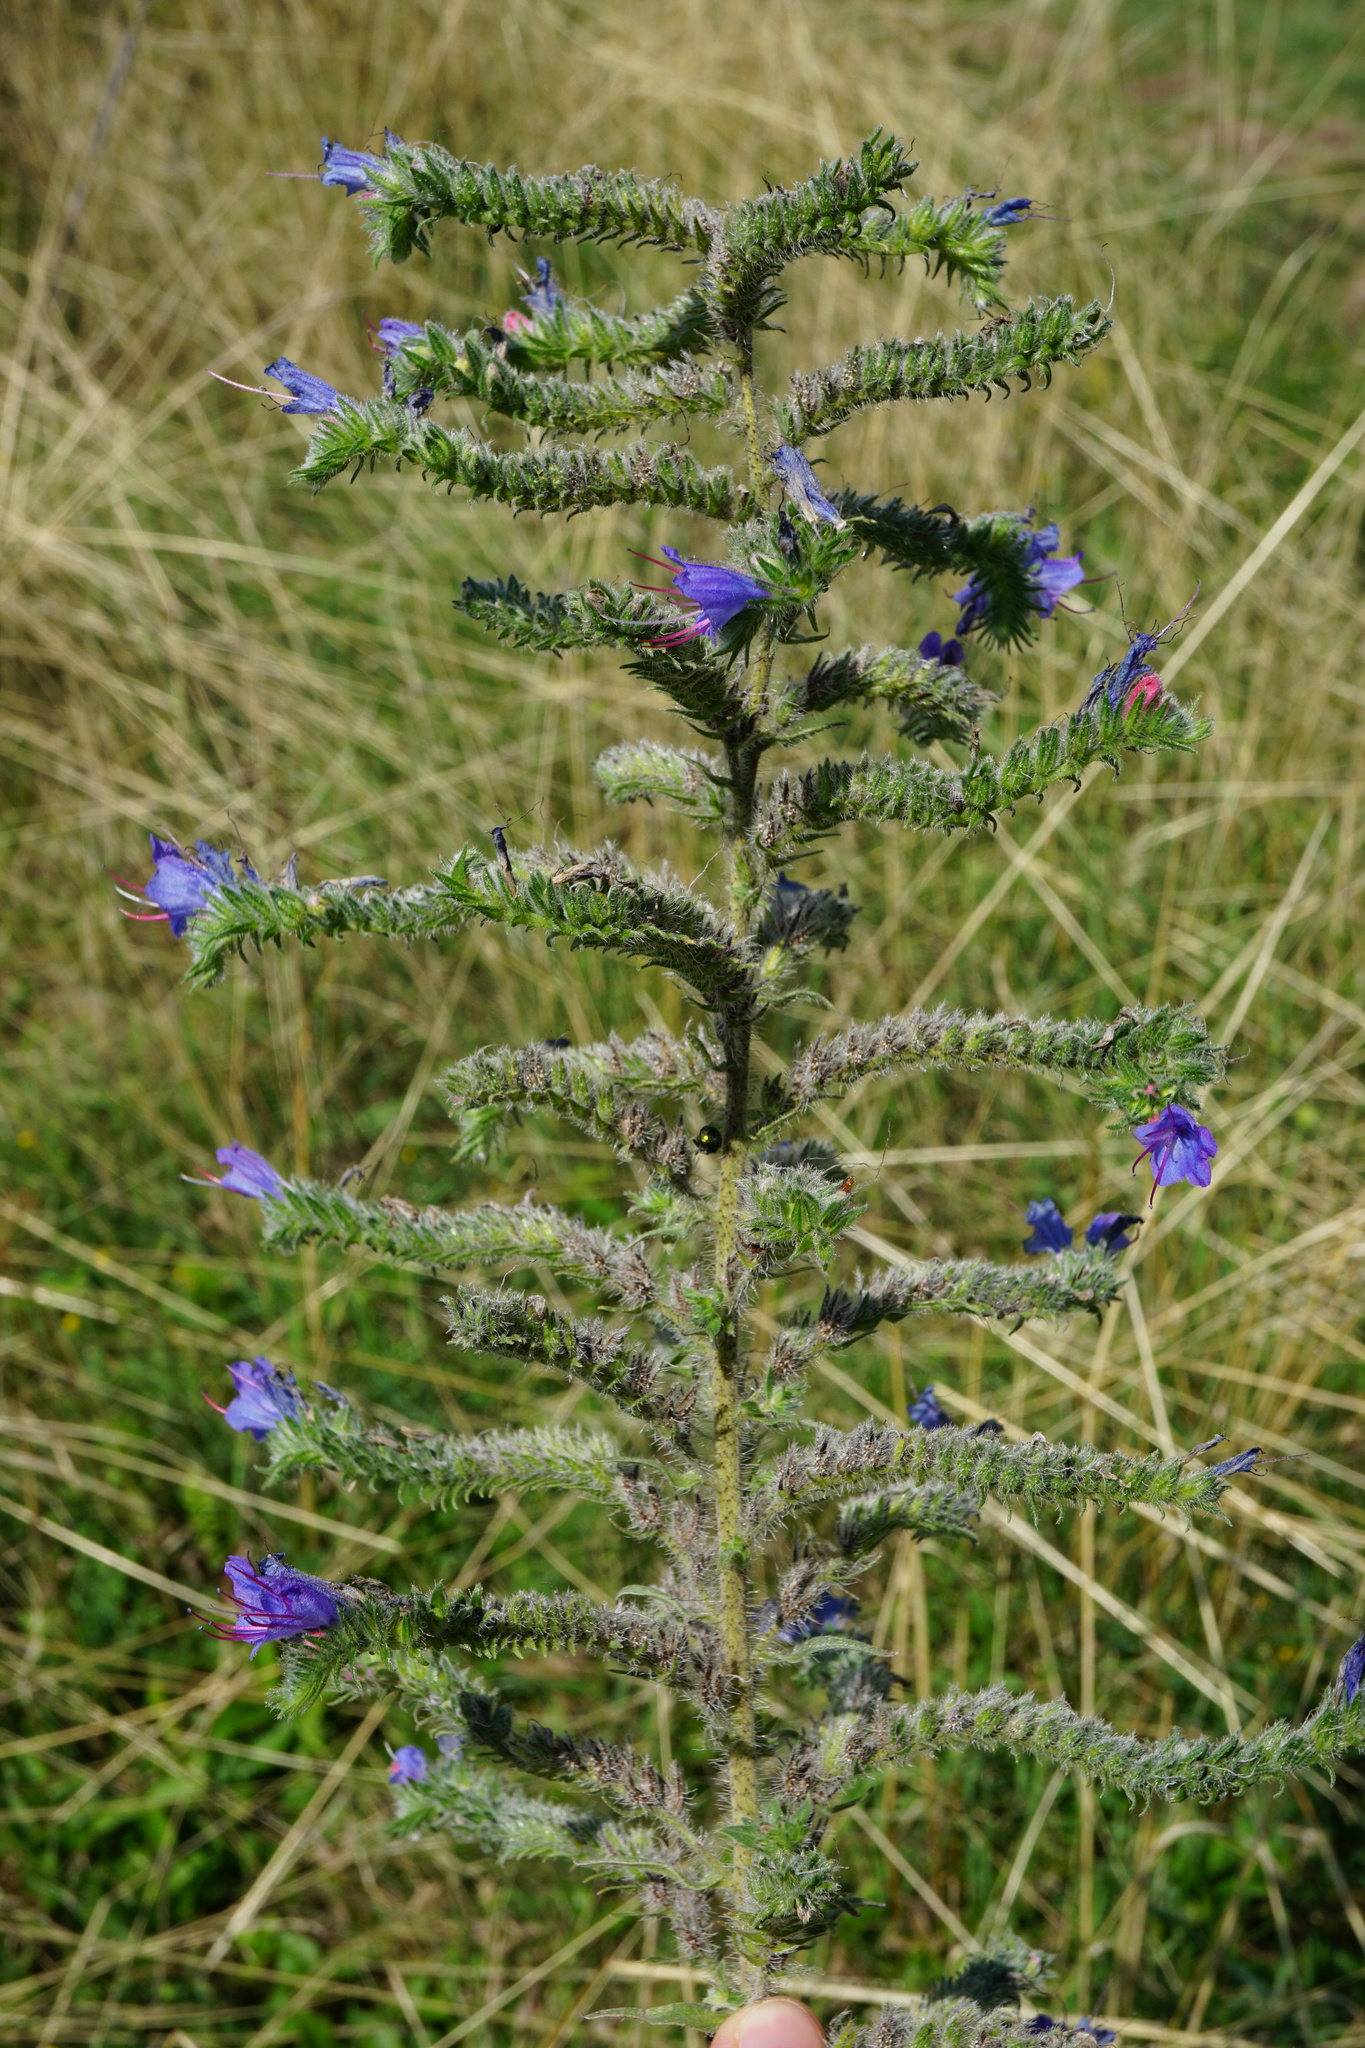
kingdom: Plantae
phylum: Tracheophyta
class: Magnoliopsida
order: Boraginales
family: Boraginaceae
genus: Echium
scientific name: Echium vulgare
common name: Common viper's bugloss
